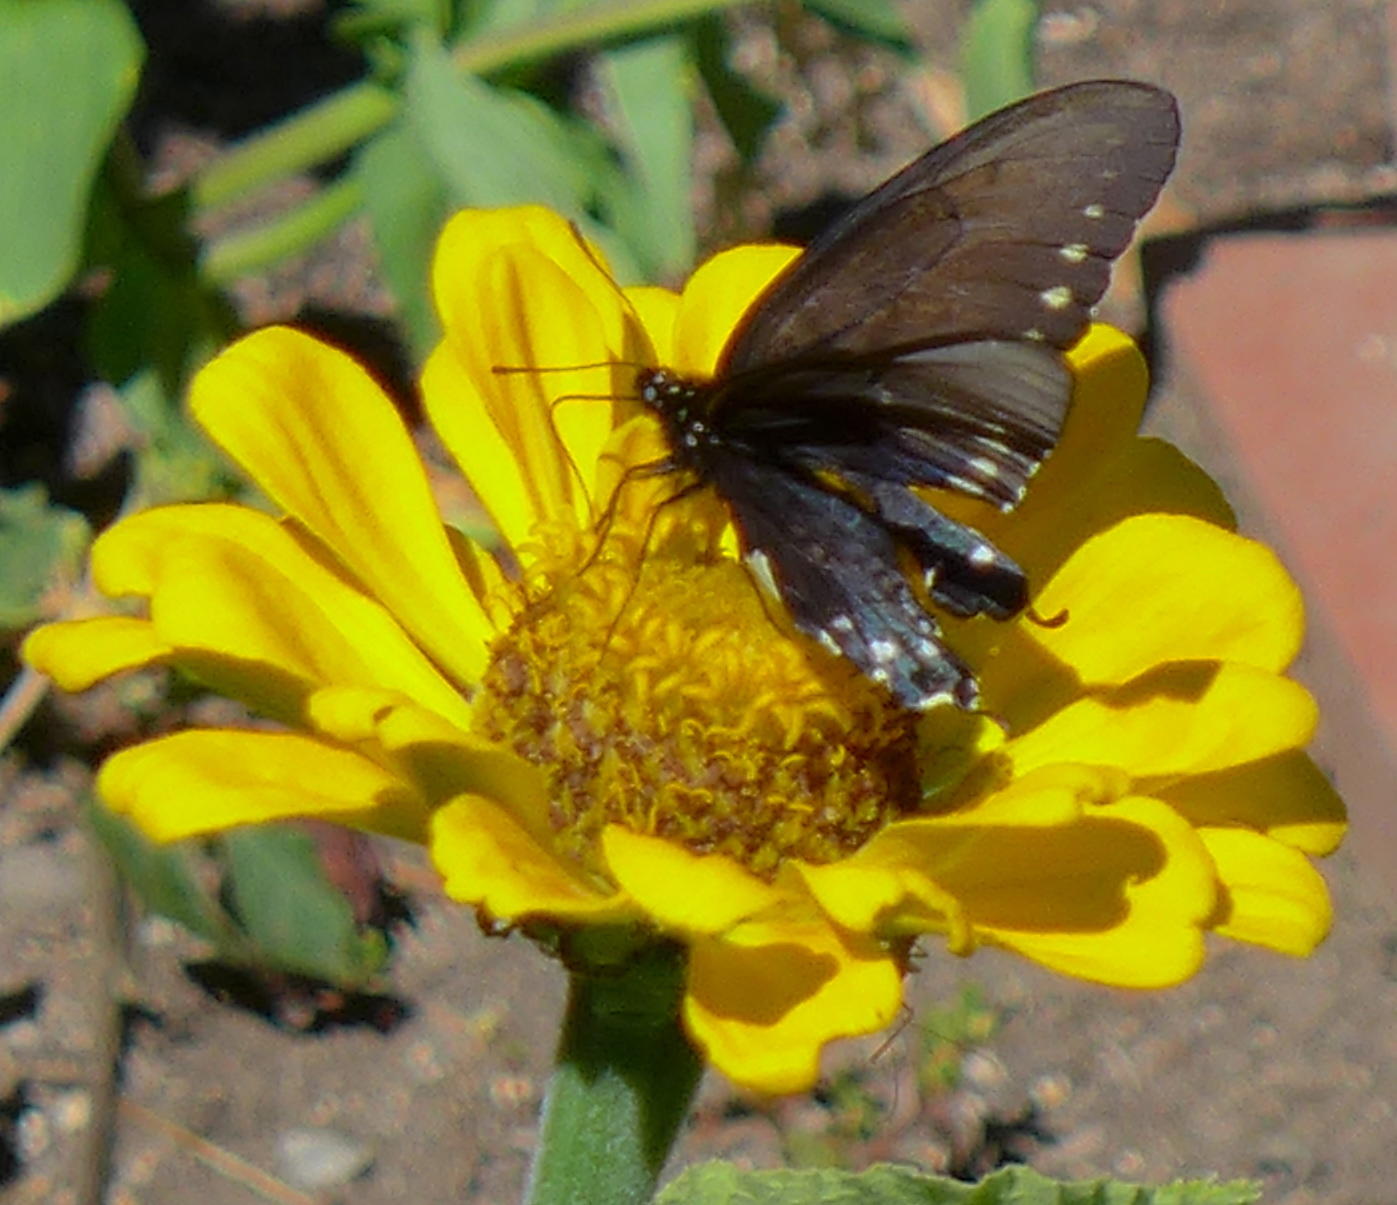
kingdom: Animalia
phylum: Arthropoda
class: Insecta
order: Lepidoptera
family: Papilionidae
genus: Battus
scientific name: Battus philenor
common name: Pipevine swallowtail
